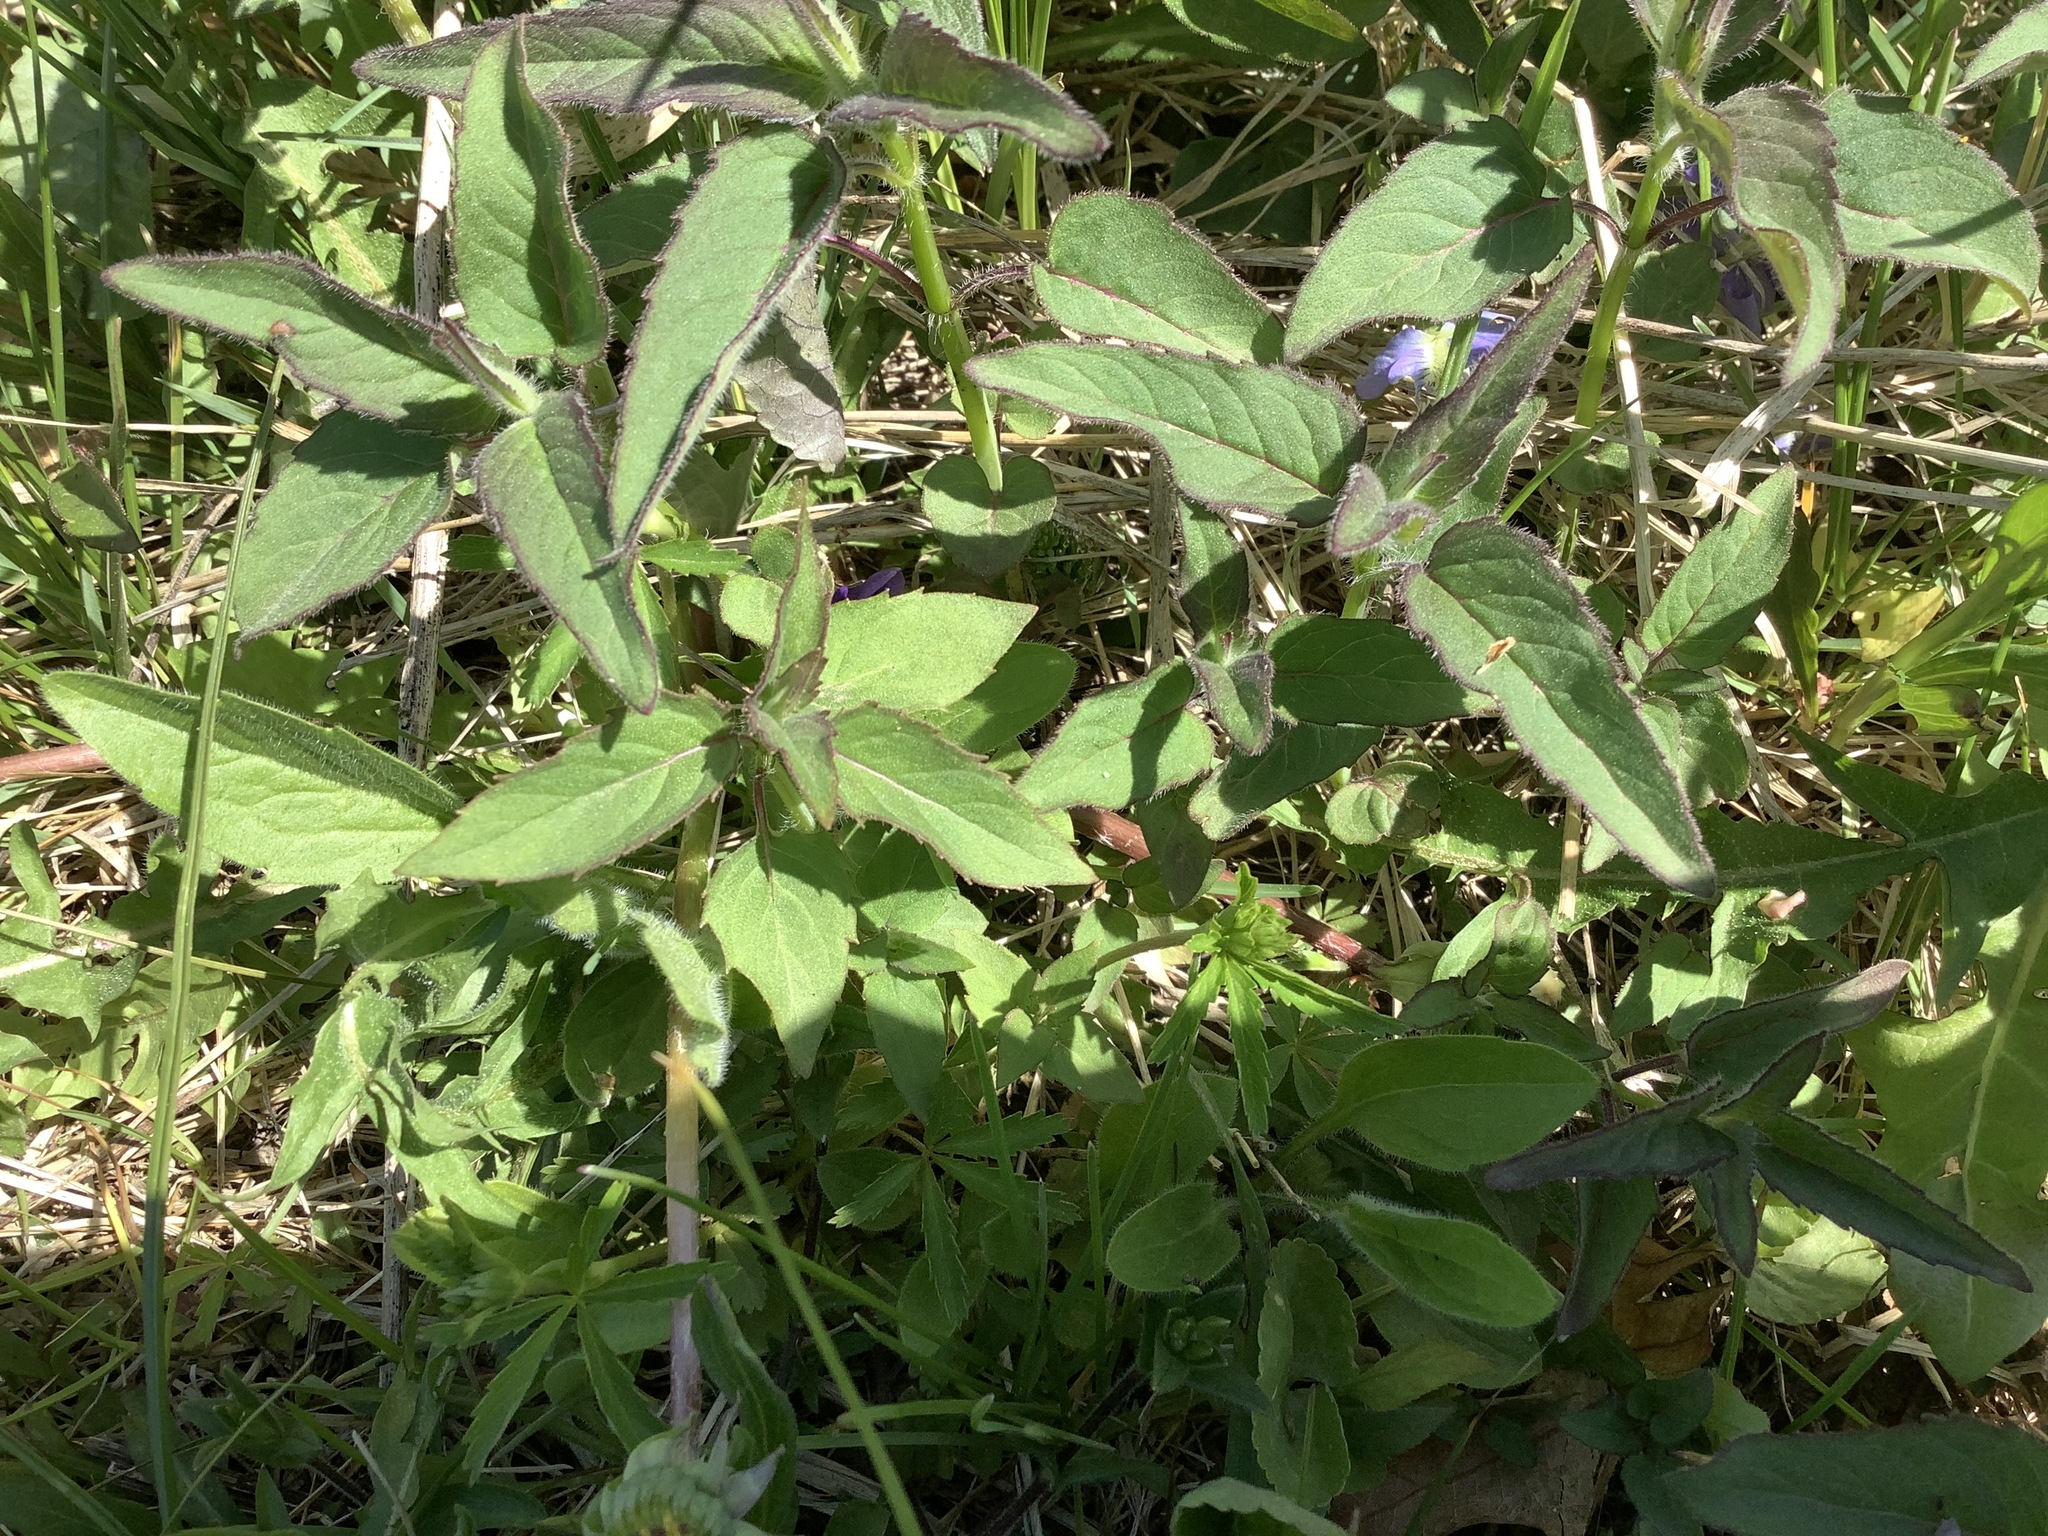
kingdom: Plantae
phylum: Tracheophyta
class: Magnoliopsida
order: Lamiales
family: Lamiaceae
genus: Monarda
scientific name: Monarda fistulosa
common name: Purple beebalm
